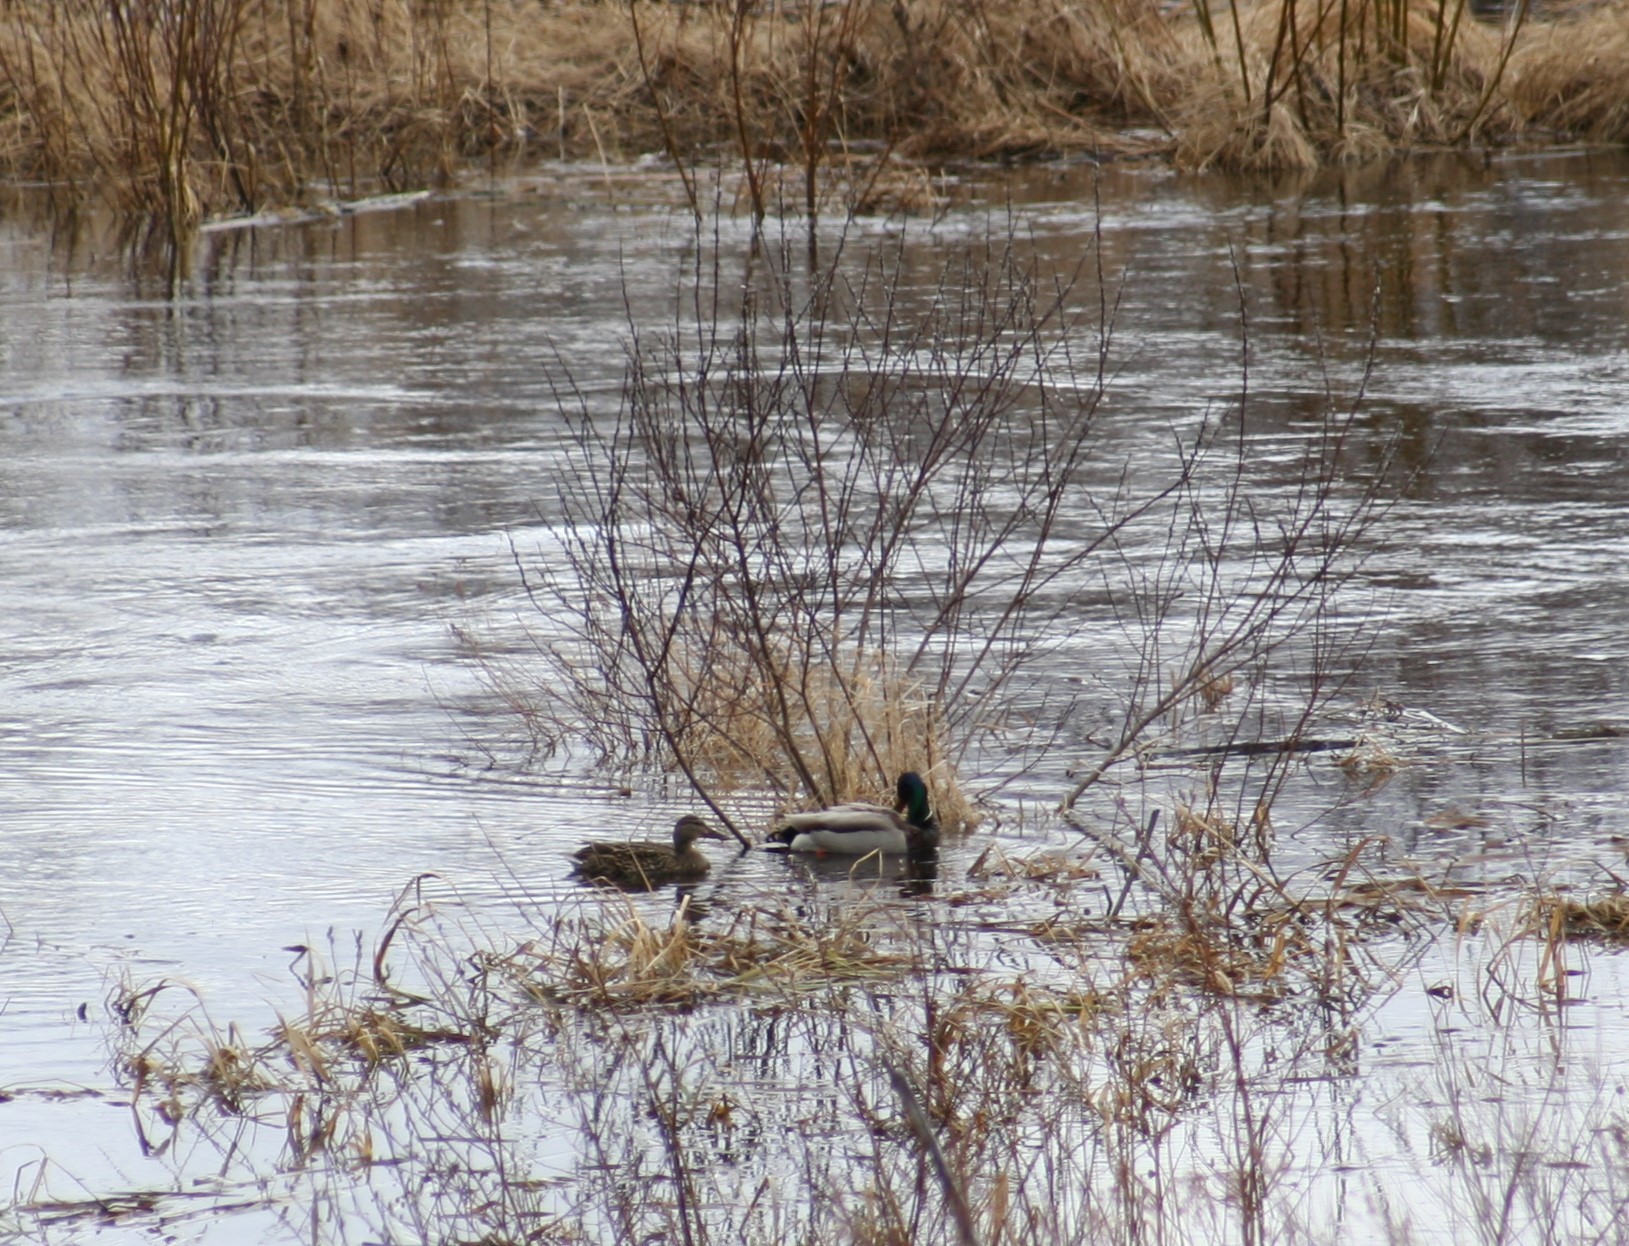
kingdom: Animalia
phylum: Chordata
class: Aves
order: Anseriformes
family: Anatidae
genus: Anas
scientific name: Anas platyrhynchos
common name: Mallard
